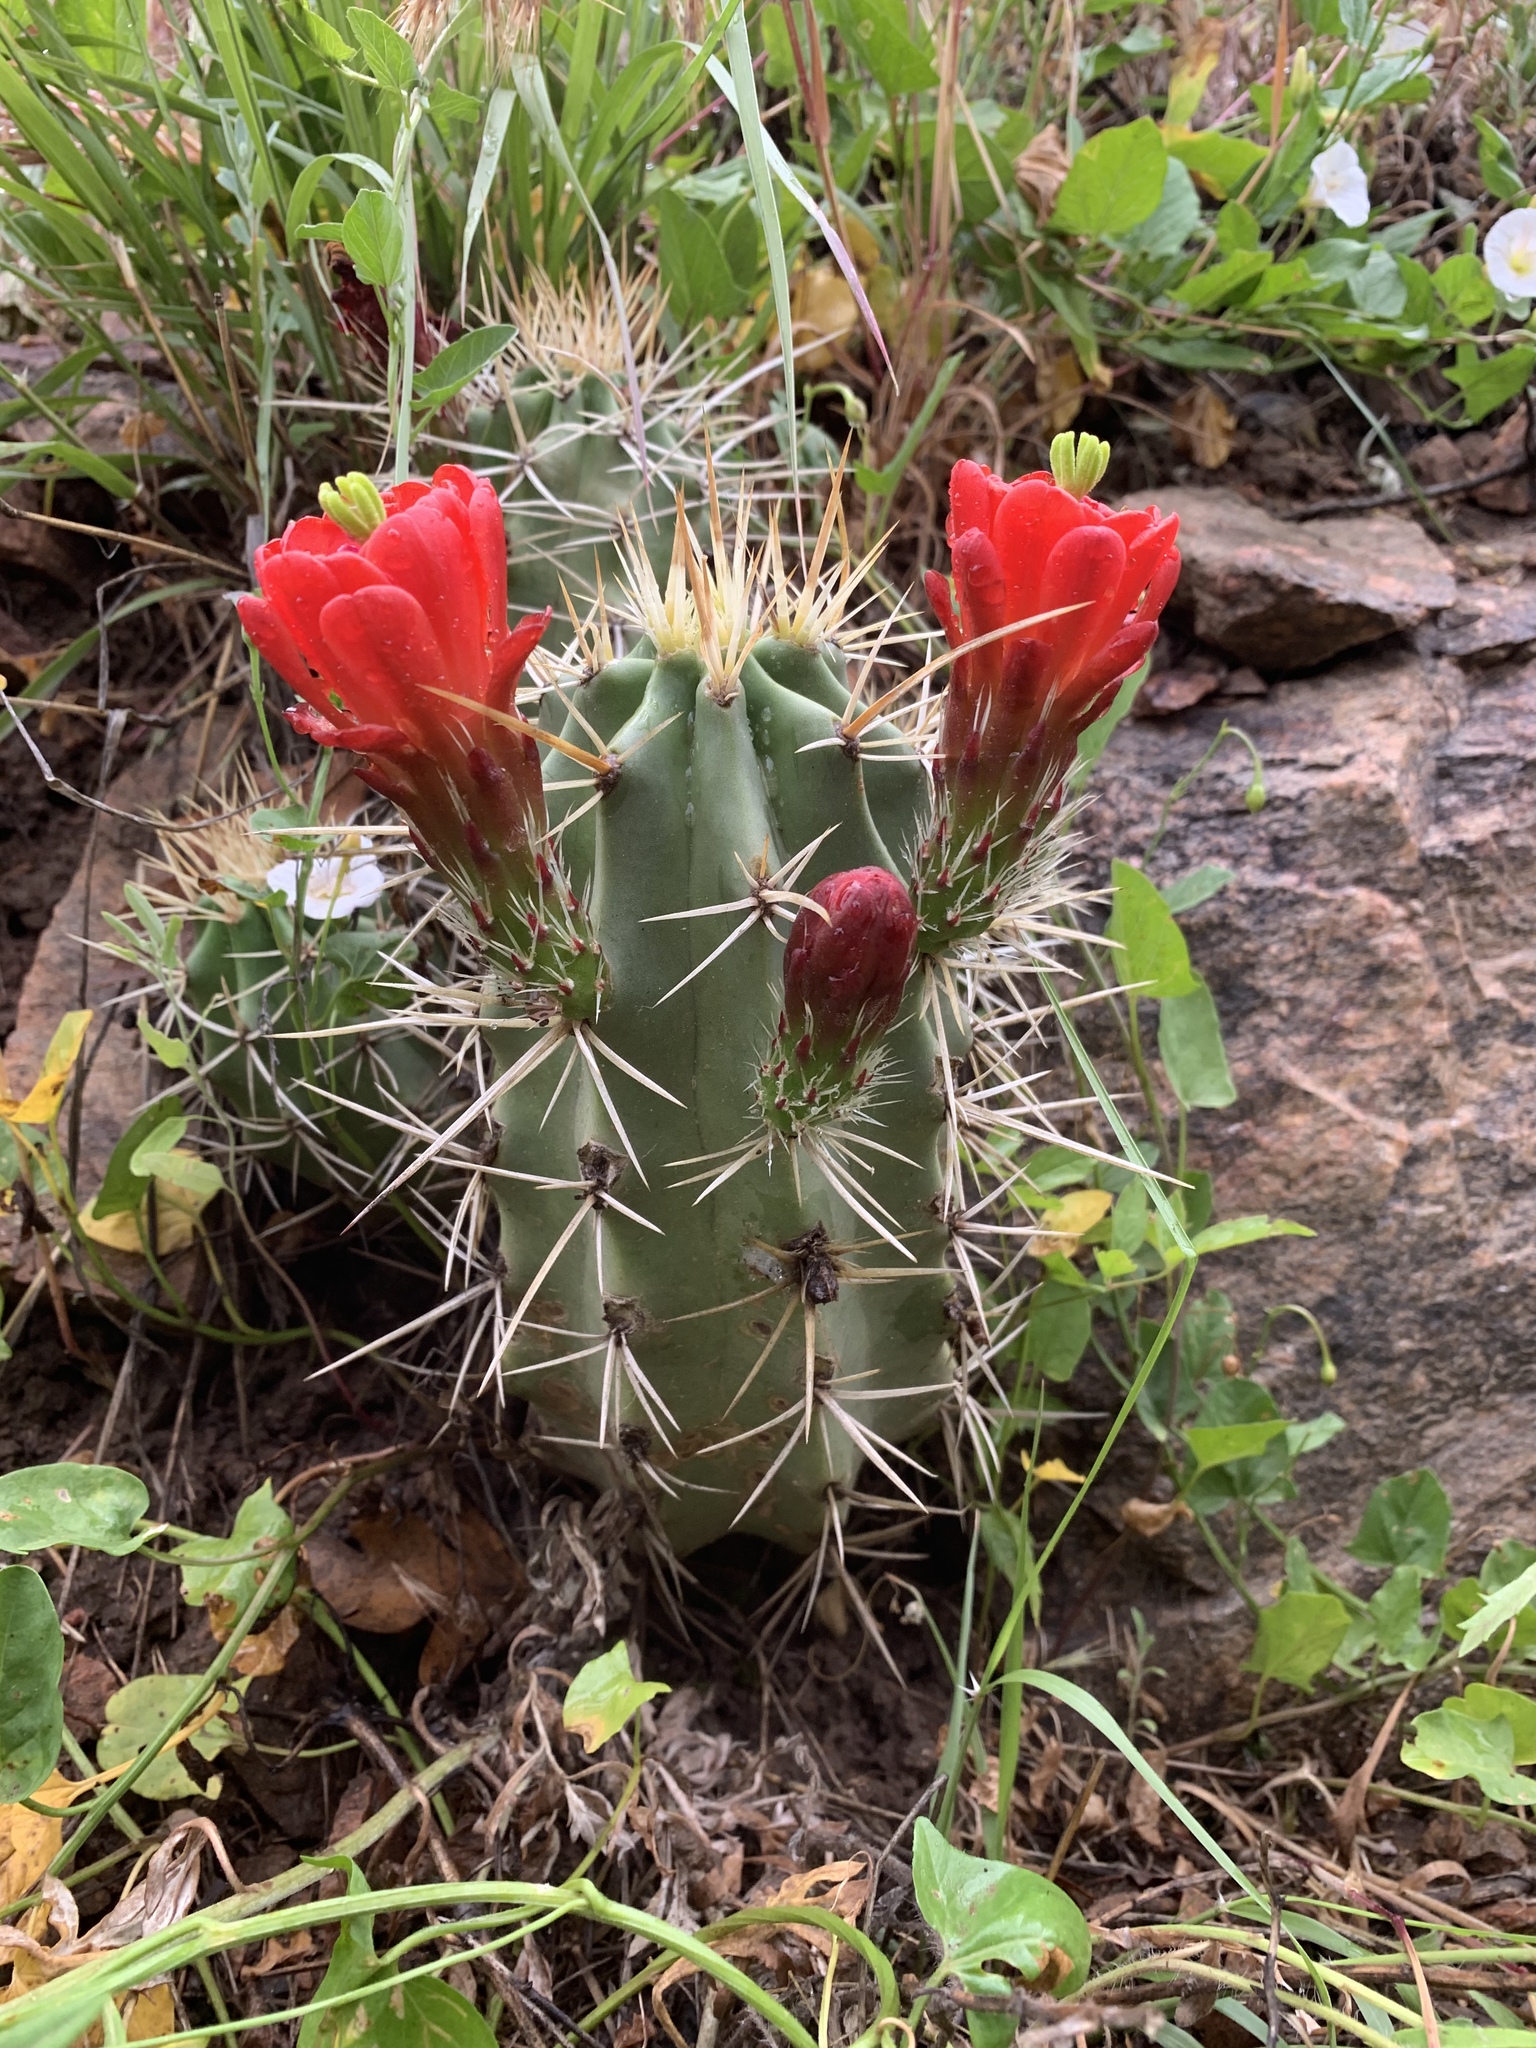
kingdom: Plantae
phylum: Tracheophyta
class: Magnoliopsida
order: Caryophyllales
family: Cactaceae
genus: Echinocereus
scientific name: Echinocereus triglochidiatus
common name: Claretcup hedgehog
